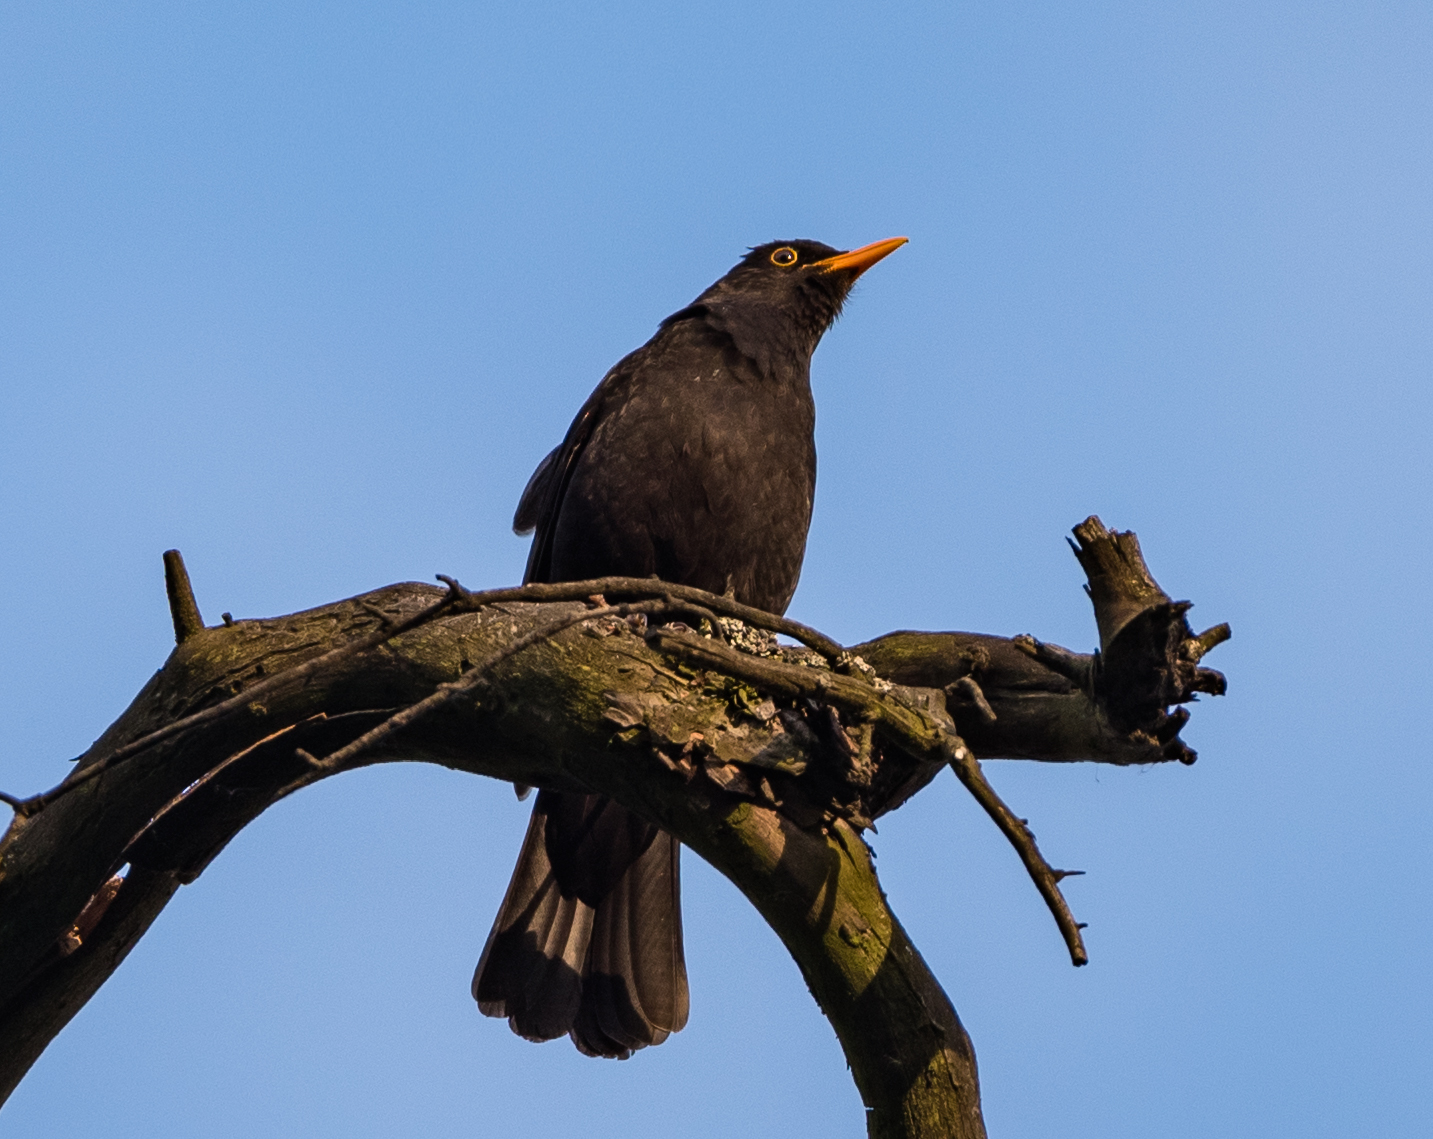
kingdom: Animalia
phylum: Chordata
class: Aves
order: Passeriformes
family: Turdidae
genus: Turdus
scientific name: Turdus merula
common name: Common blackbird
